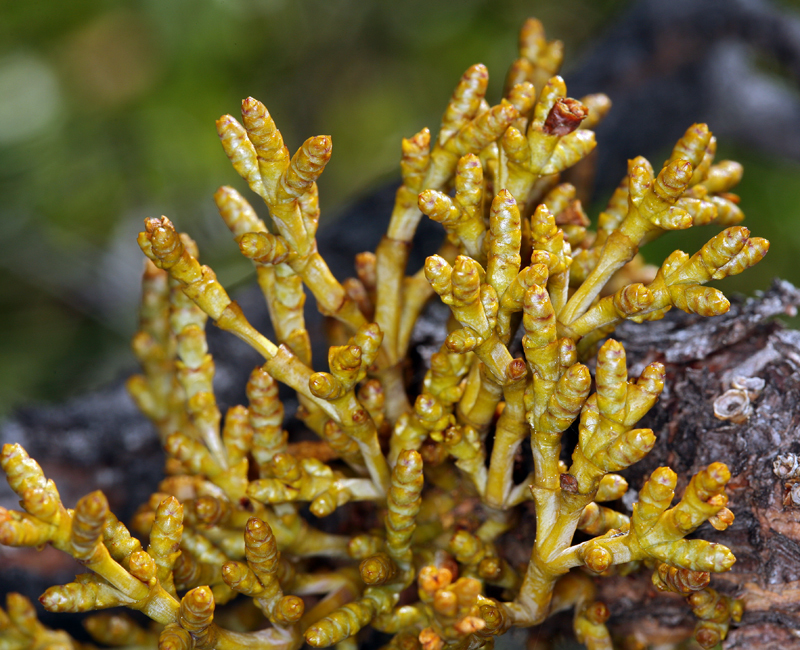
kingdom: Plantae
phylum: Tracheophyta
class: Magnoliopsida
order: Santalales
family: Viscaceae
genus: Arceuthobium
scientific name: Arceuthobium campylopodum
